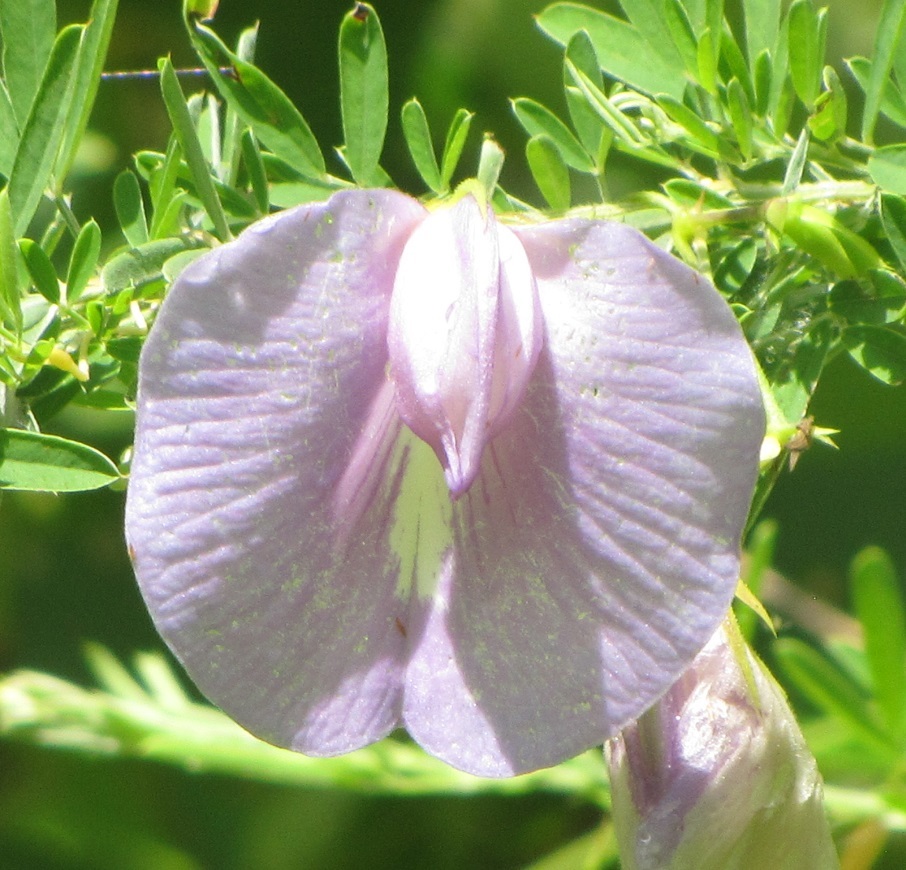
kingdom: Plantae
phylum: Tracheophyta
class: Magnoliopsida
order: Fabales
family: Fabaceae
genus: Centrosema
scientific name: Centrosema virginianum
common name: Butterfly-pea
